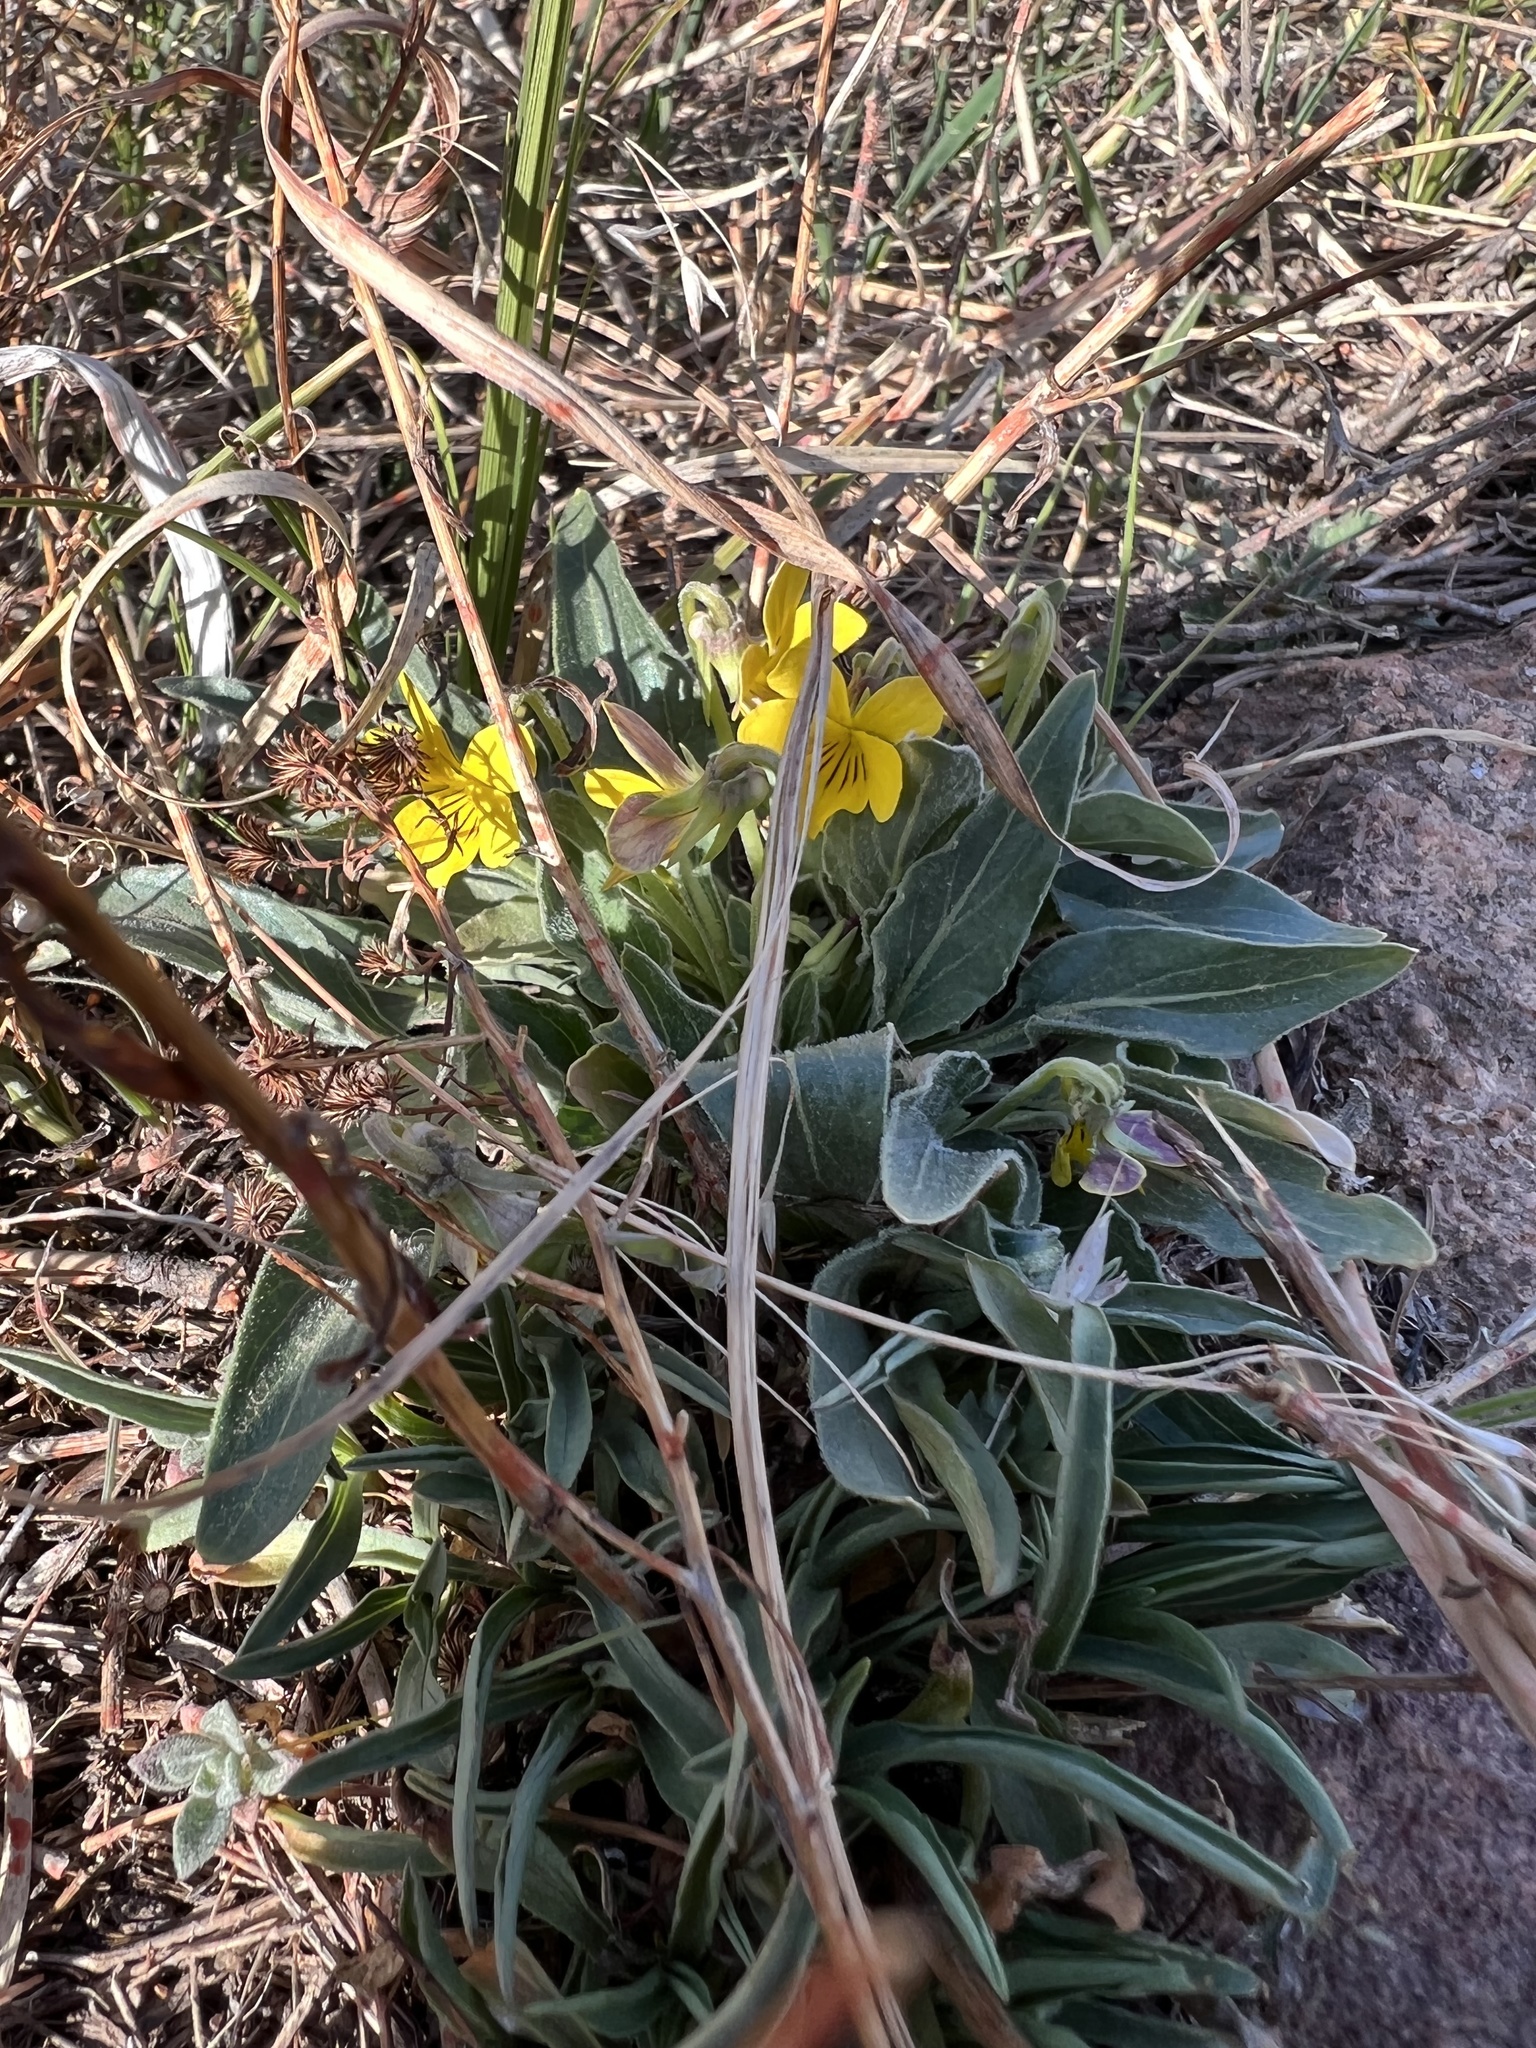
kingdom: Plantae
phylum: Tracheophyta
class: Magnoliopsida
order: Malpighiales
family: Violaceae
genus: Viola
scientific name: Viola nuttallii
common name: Yellow prairie violet
